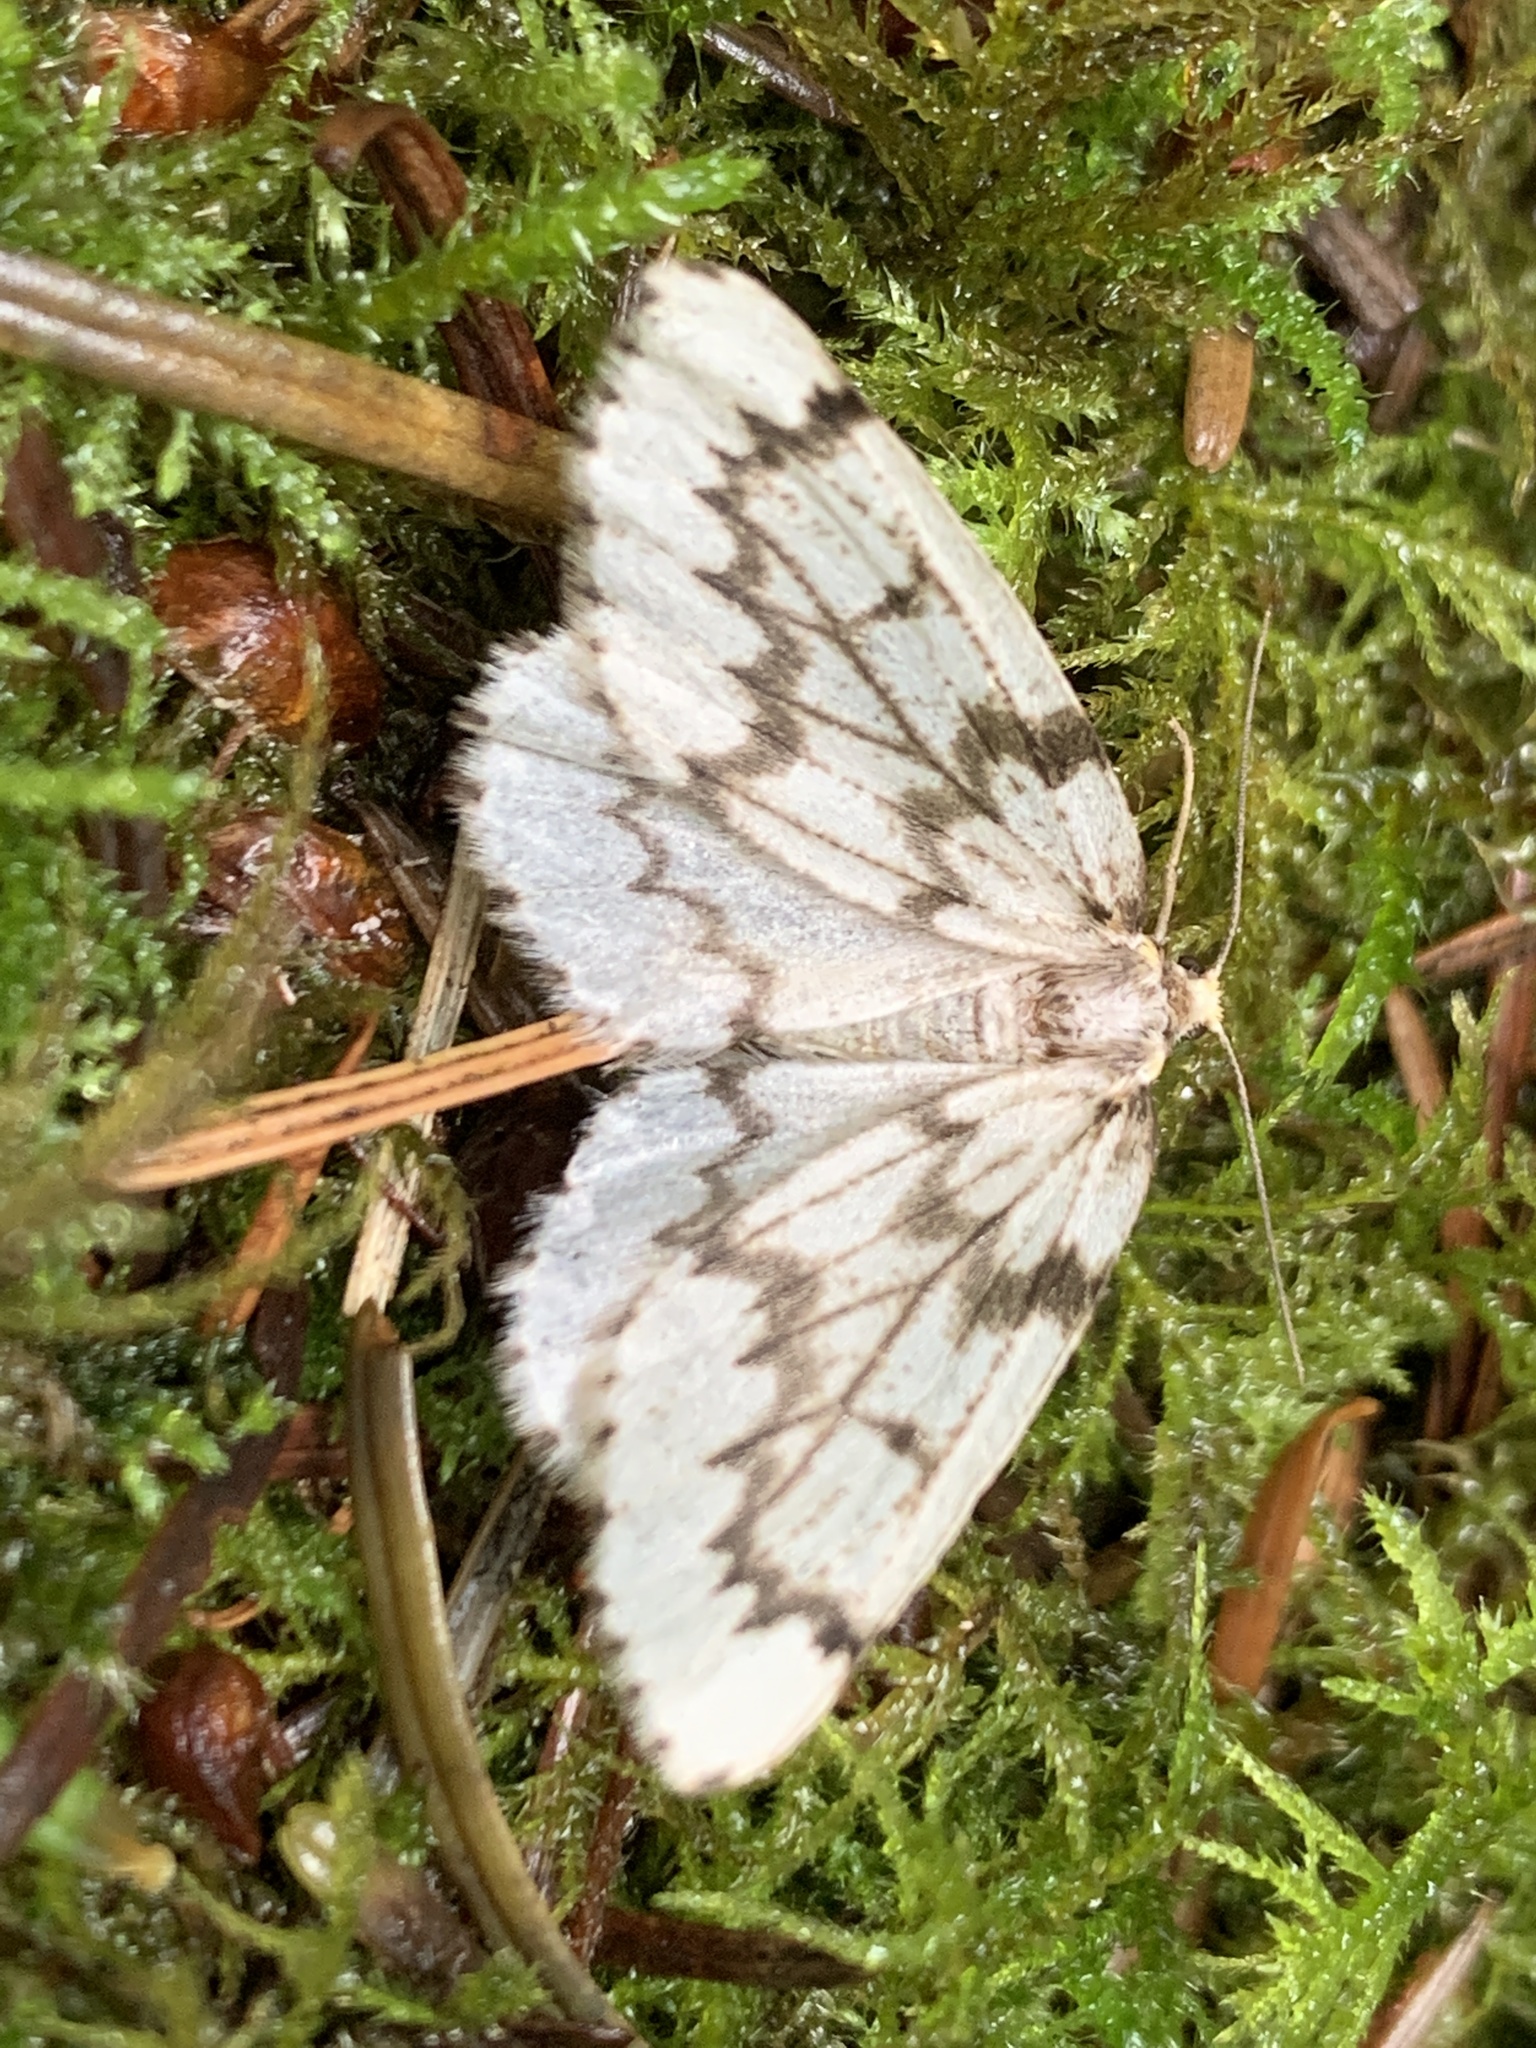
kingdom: Animalia
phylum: Arthropoda
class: Insecta
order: Lepidoptera
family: Geometridae
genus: Nepytia
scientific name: Nepytia phantasmaria
